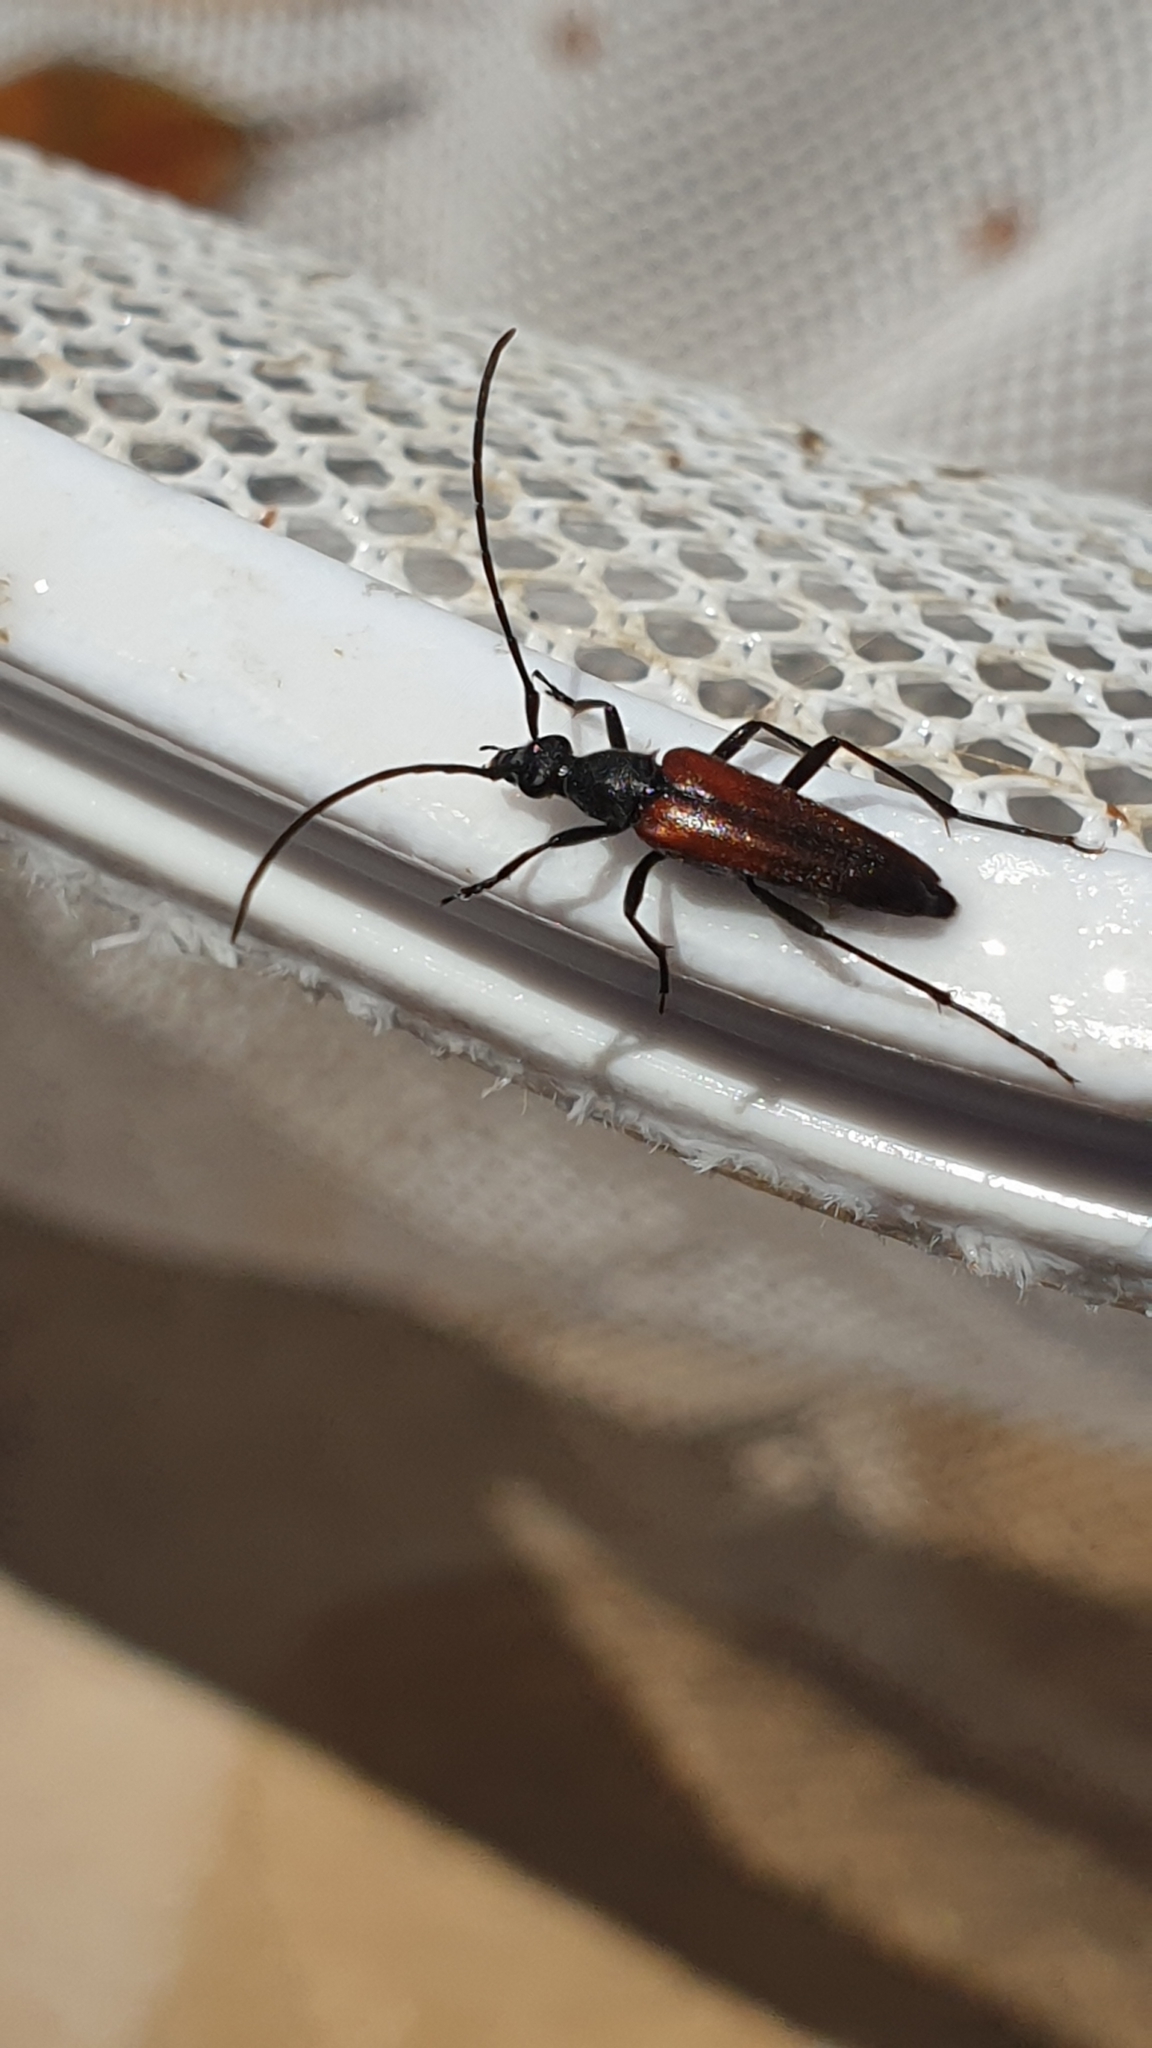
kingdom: Animalia
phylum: Arthropoda
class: Insecta
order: Coleoptera
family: Cerambycidae
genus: Stenurella
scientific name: Stenurella melanura
